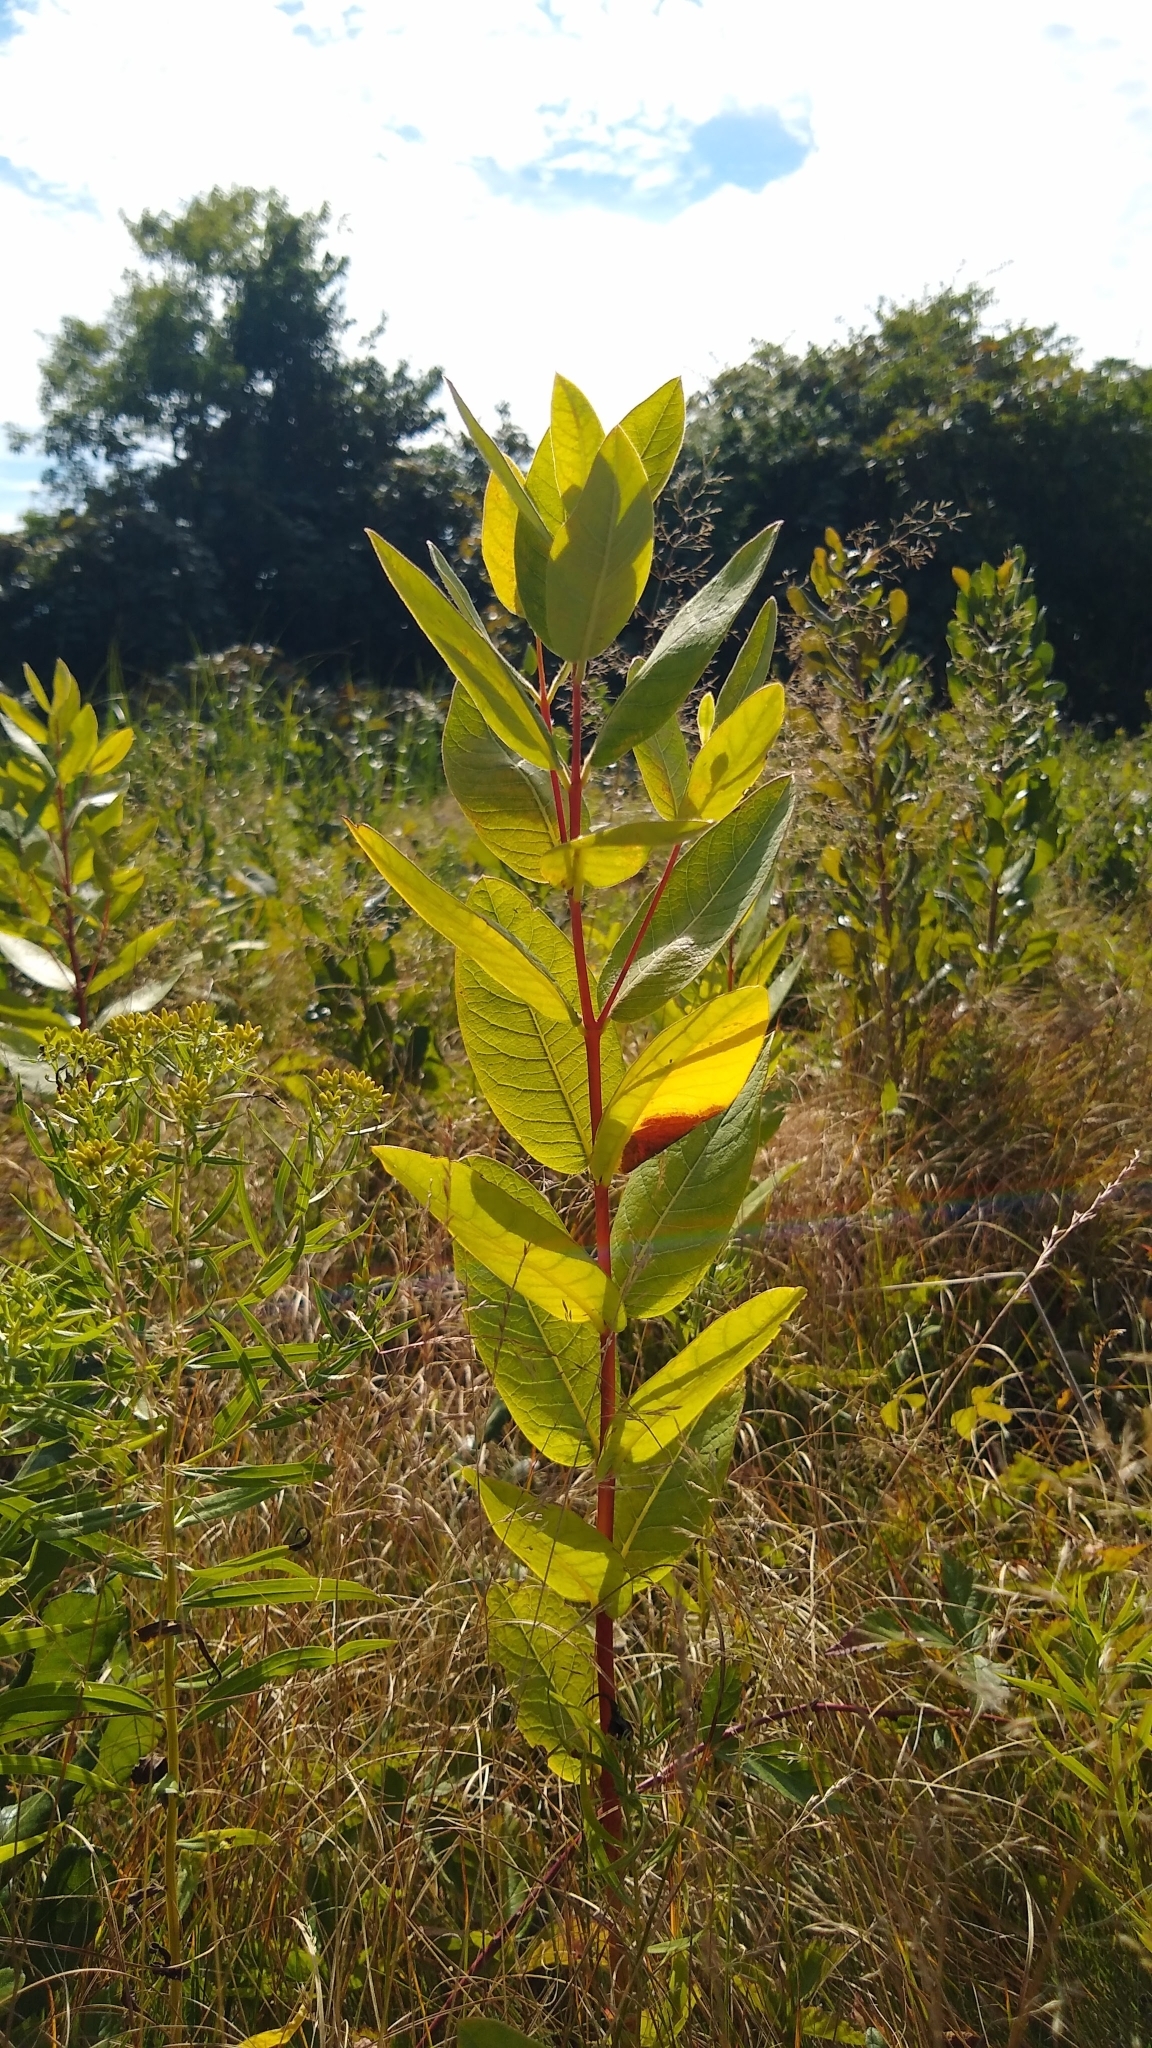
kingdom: Plantae
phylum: Tracheophyta
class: Magnoliopsida
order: Gentianales
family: Apocynaceae
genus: Apocynum
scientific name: Apocynum cannabinum
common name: Hemp dogbane
